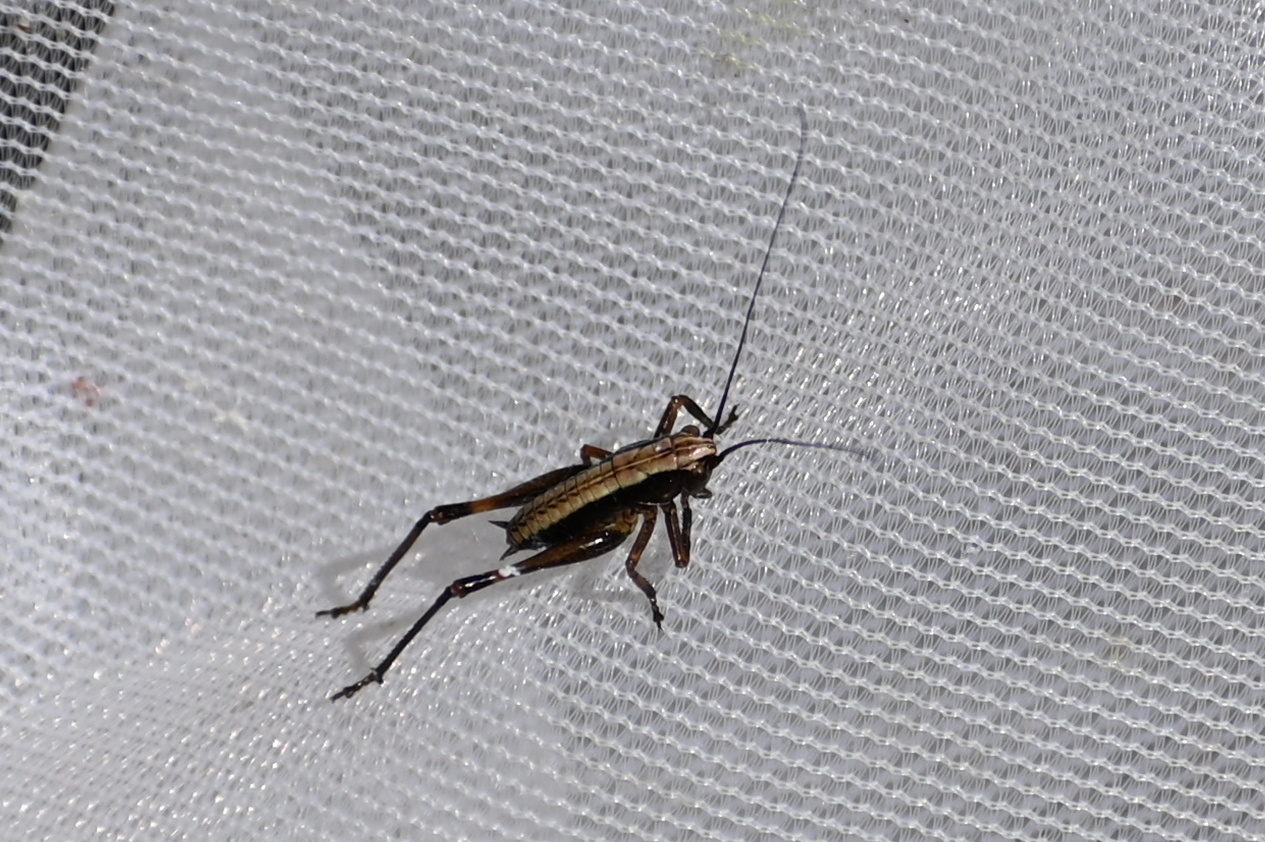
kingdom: Animalia
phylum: Arthropoda
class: Insecta
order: Orthoptera
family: Tettigoniidae
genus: Pholidoptera
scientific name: Pholidoptera griseoaptera
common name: Dark bush-cricket
